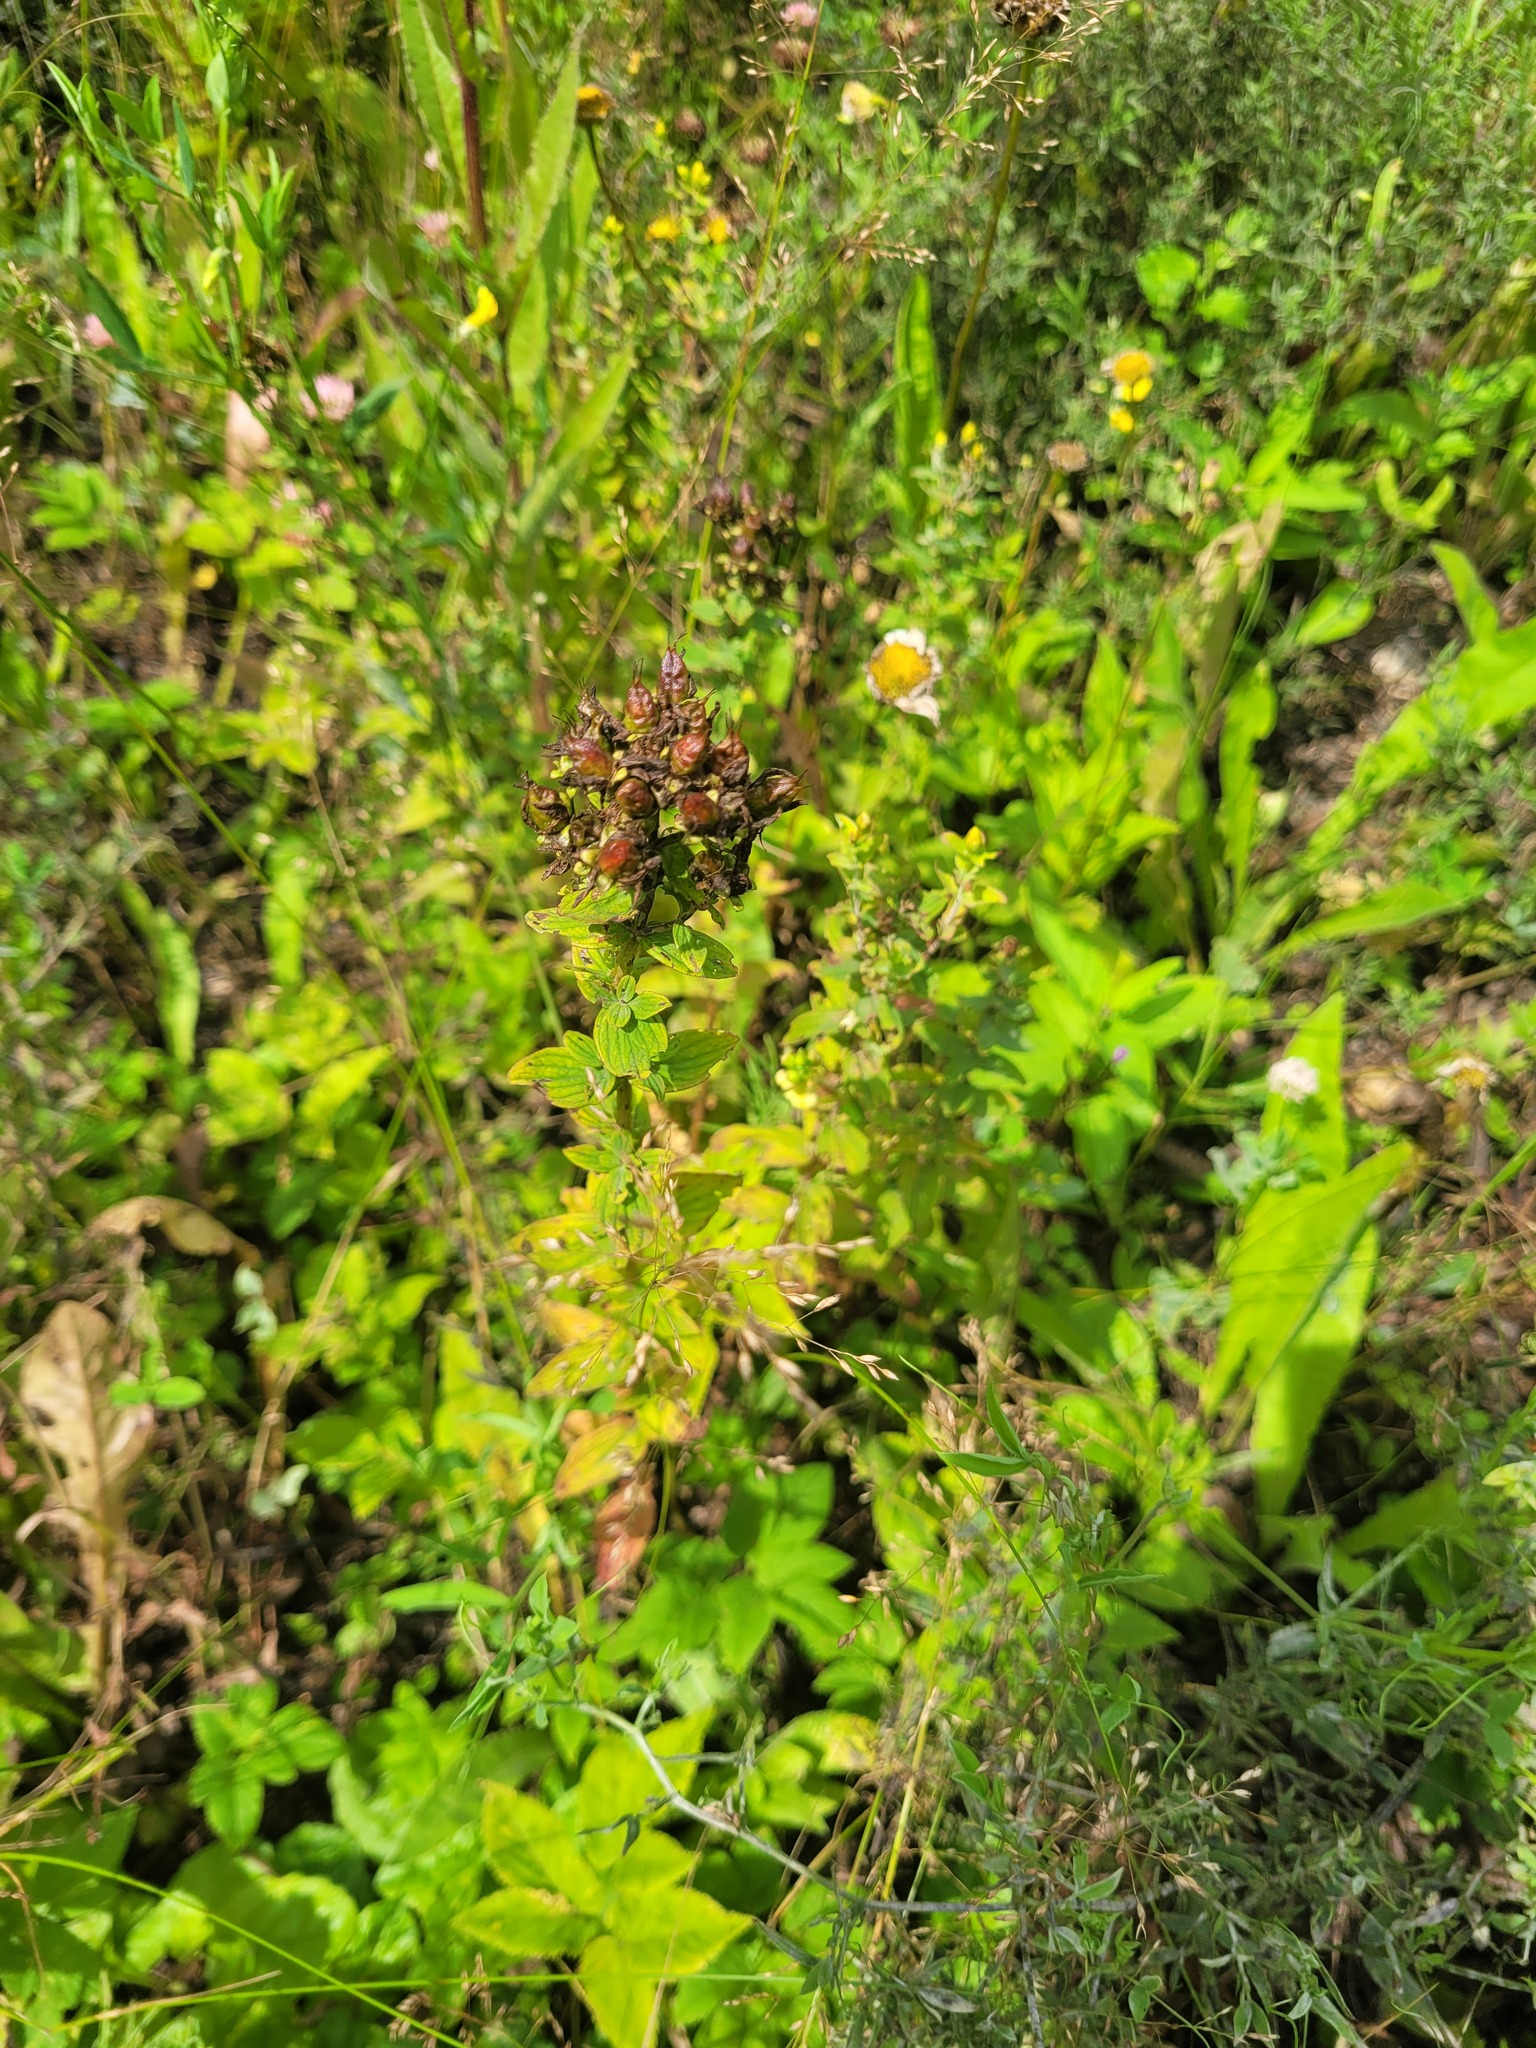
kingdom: Plantae
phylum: Tracheophyta
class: Magnoliopsida
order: Malpighiales
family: Hypericaceae
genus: Hypericum
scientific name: Hypericum maculatum
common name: Imperforate st. john's-wort
